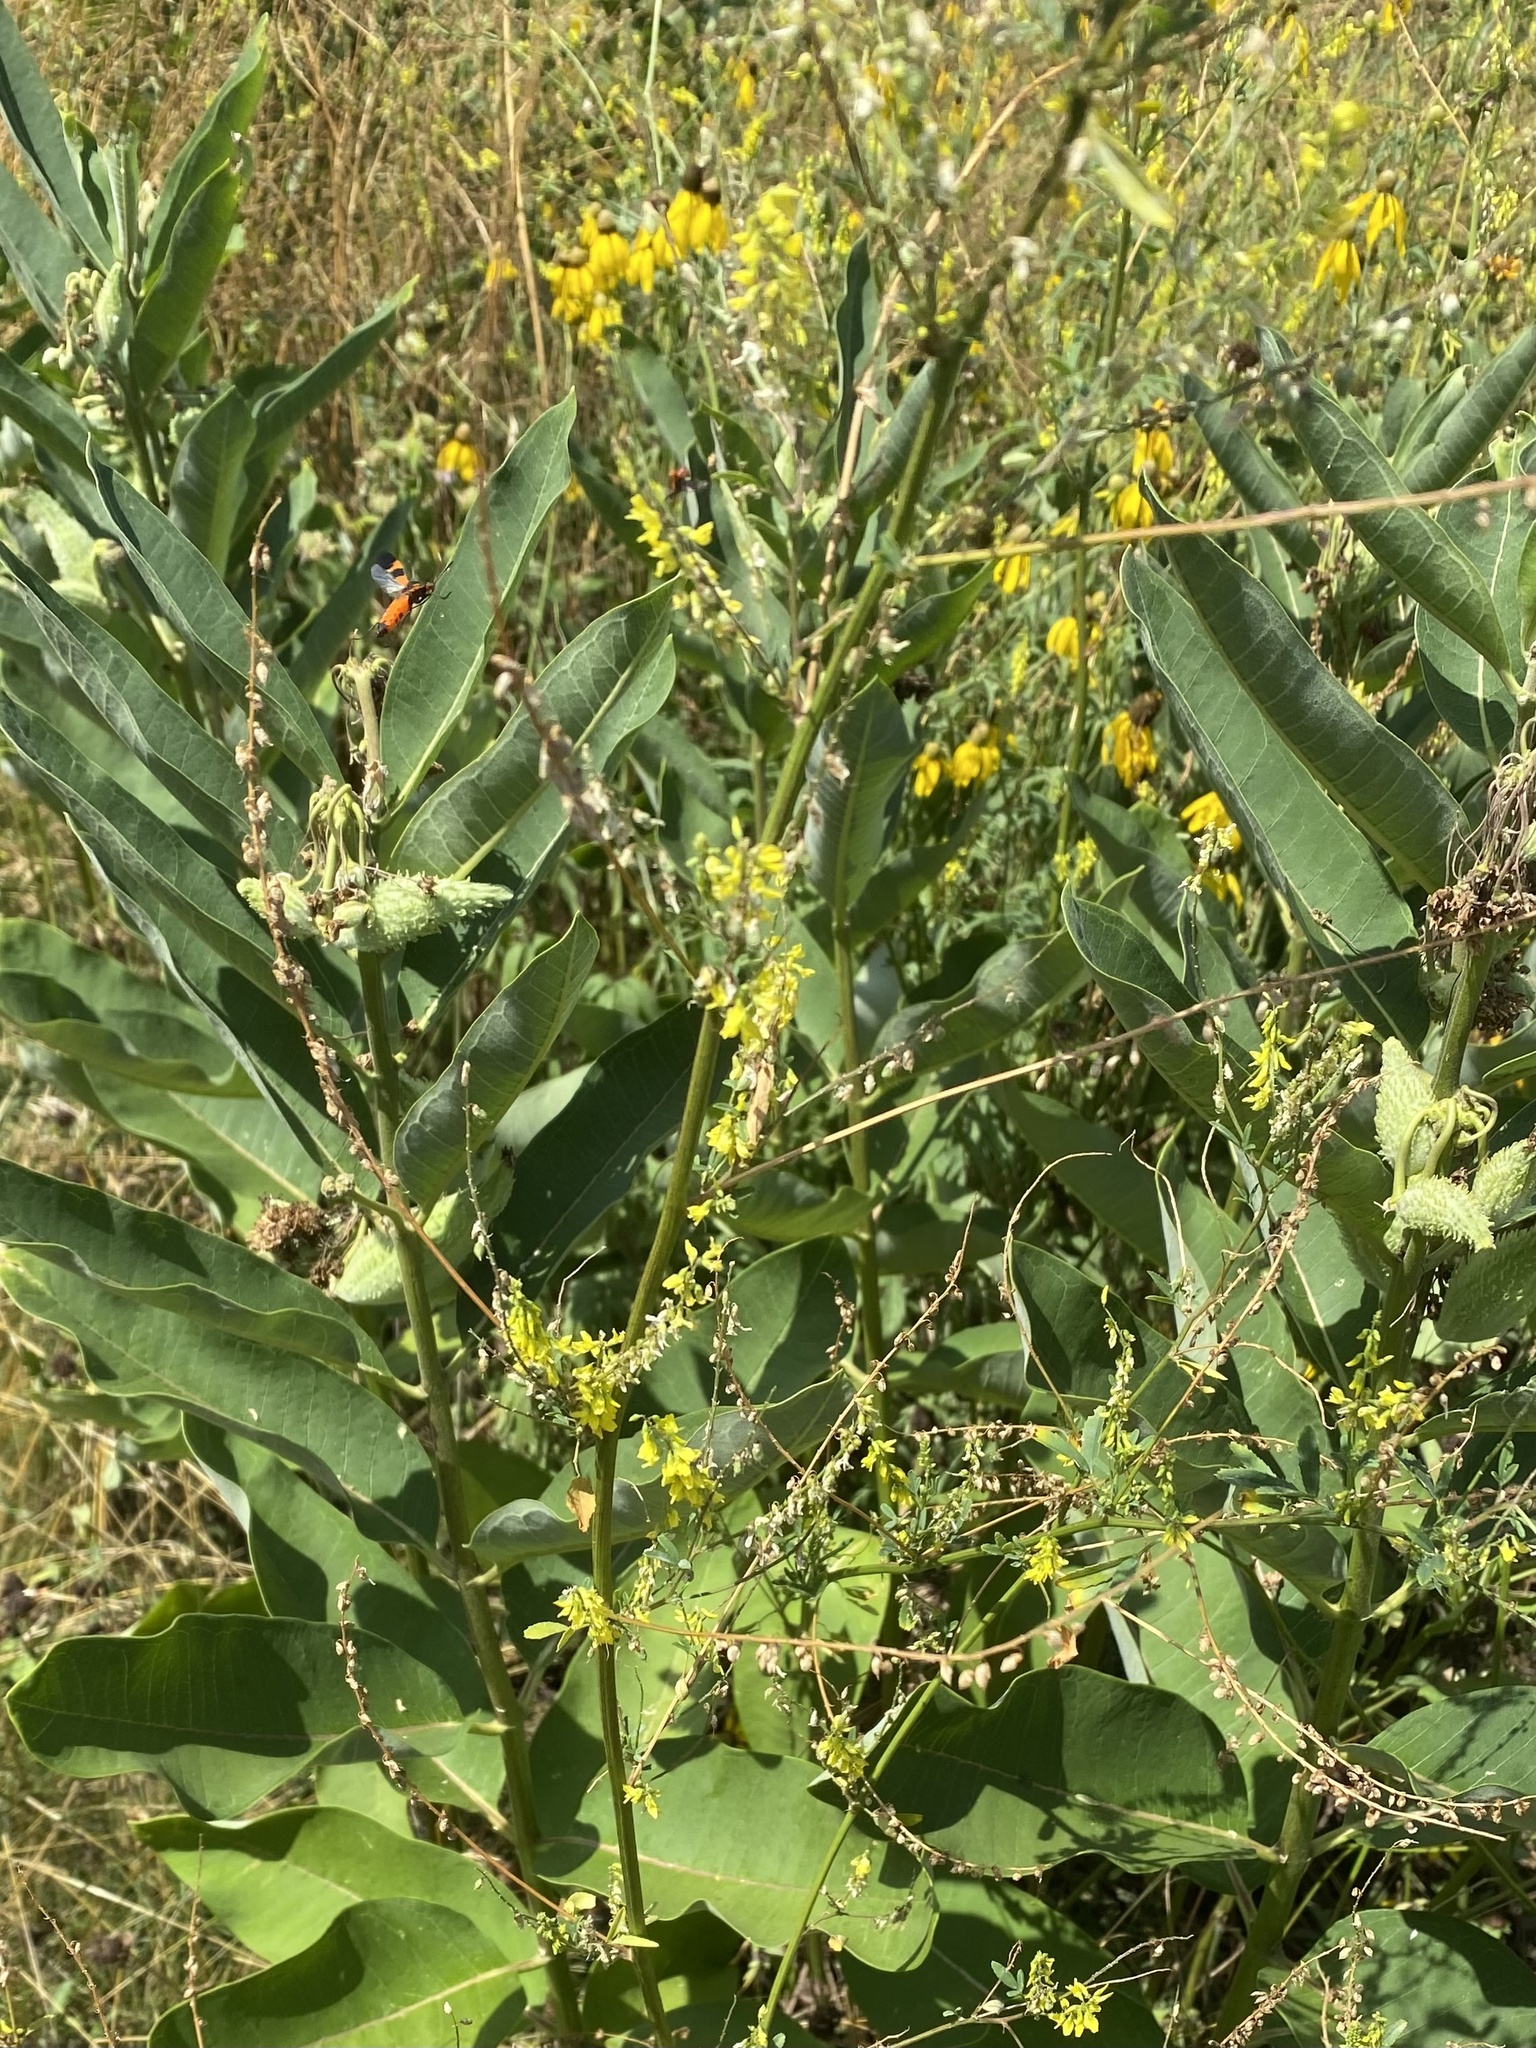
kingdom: Plantae
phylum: Tracheophyta
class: Magnoliopsida
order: Fabales
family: Fabaceae
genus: Melilotus
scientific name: Melilotus officinalis
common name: Sweetclover
